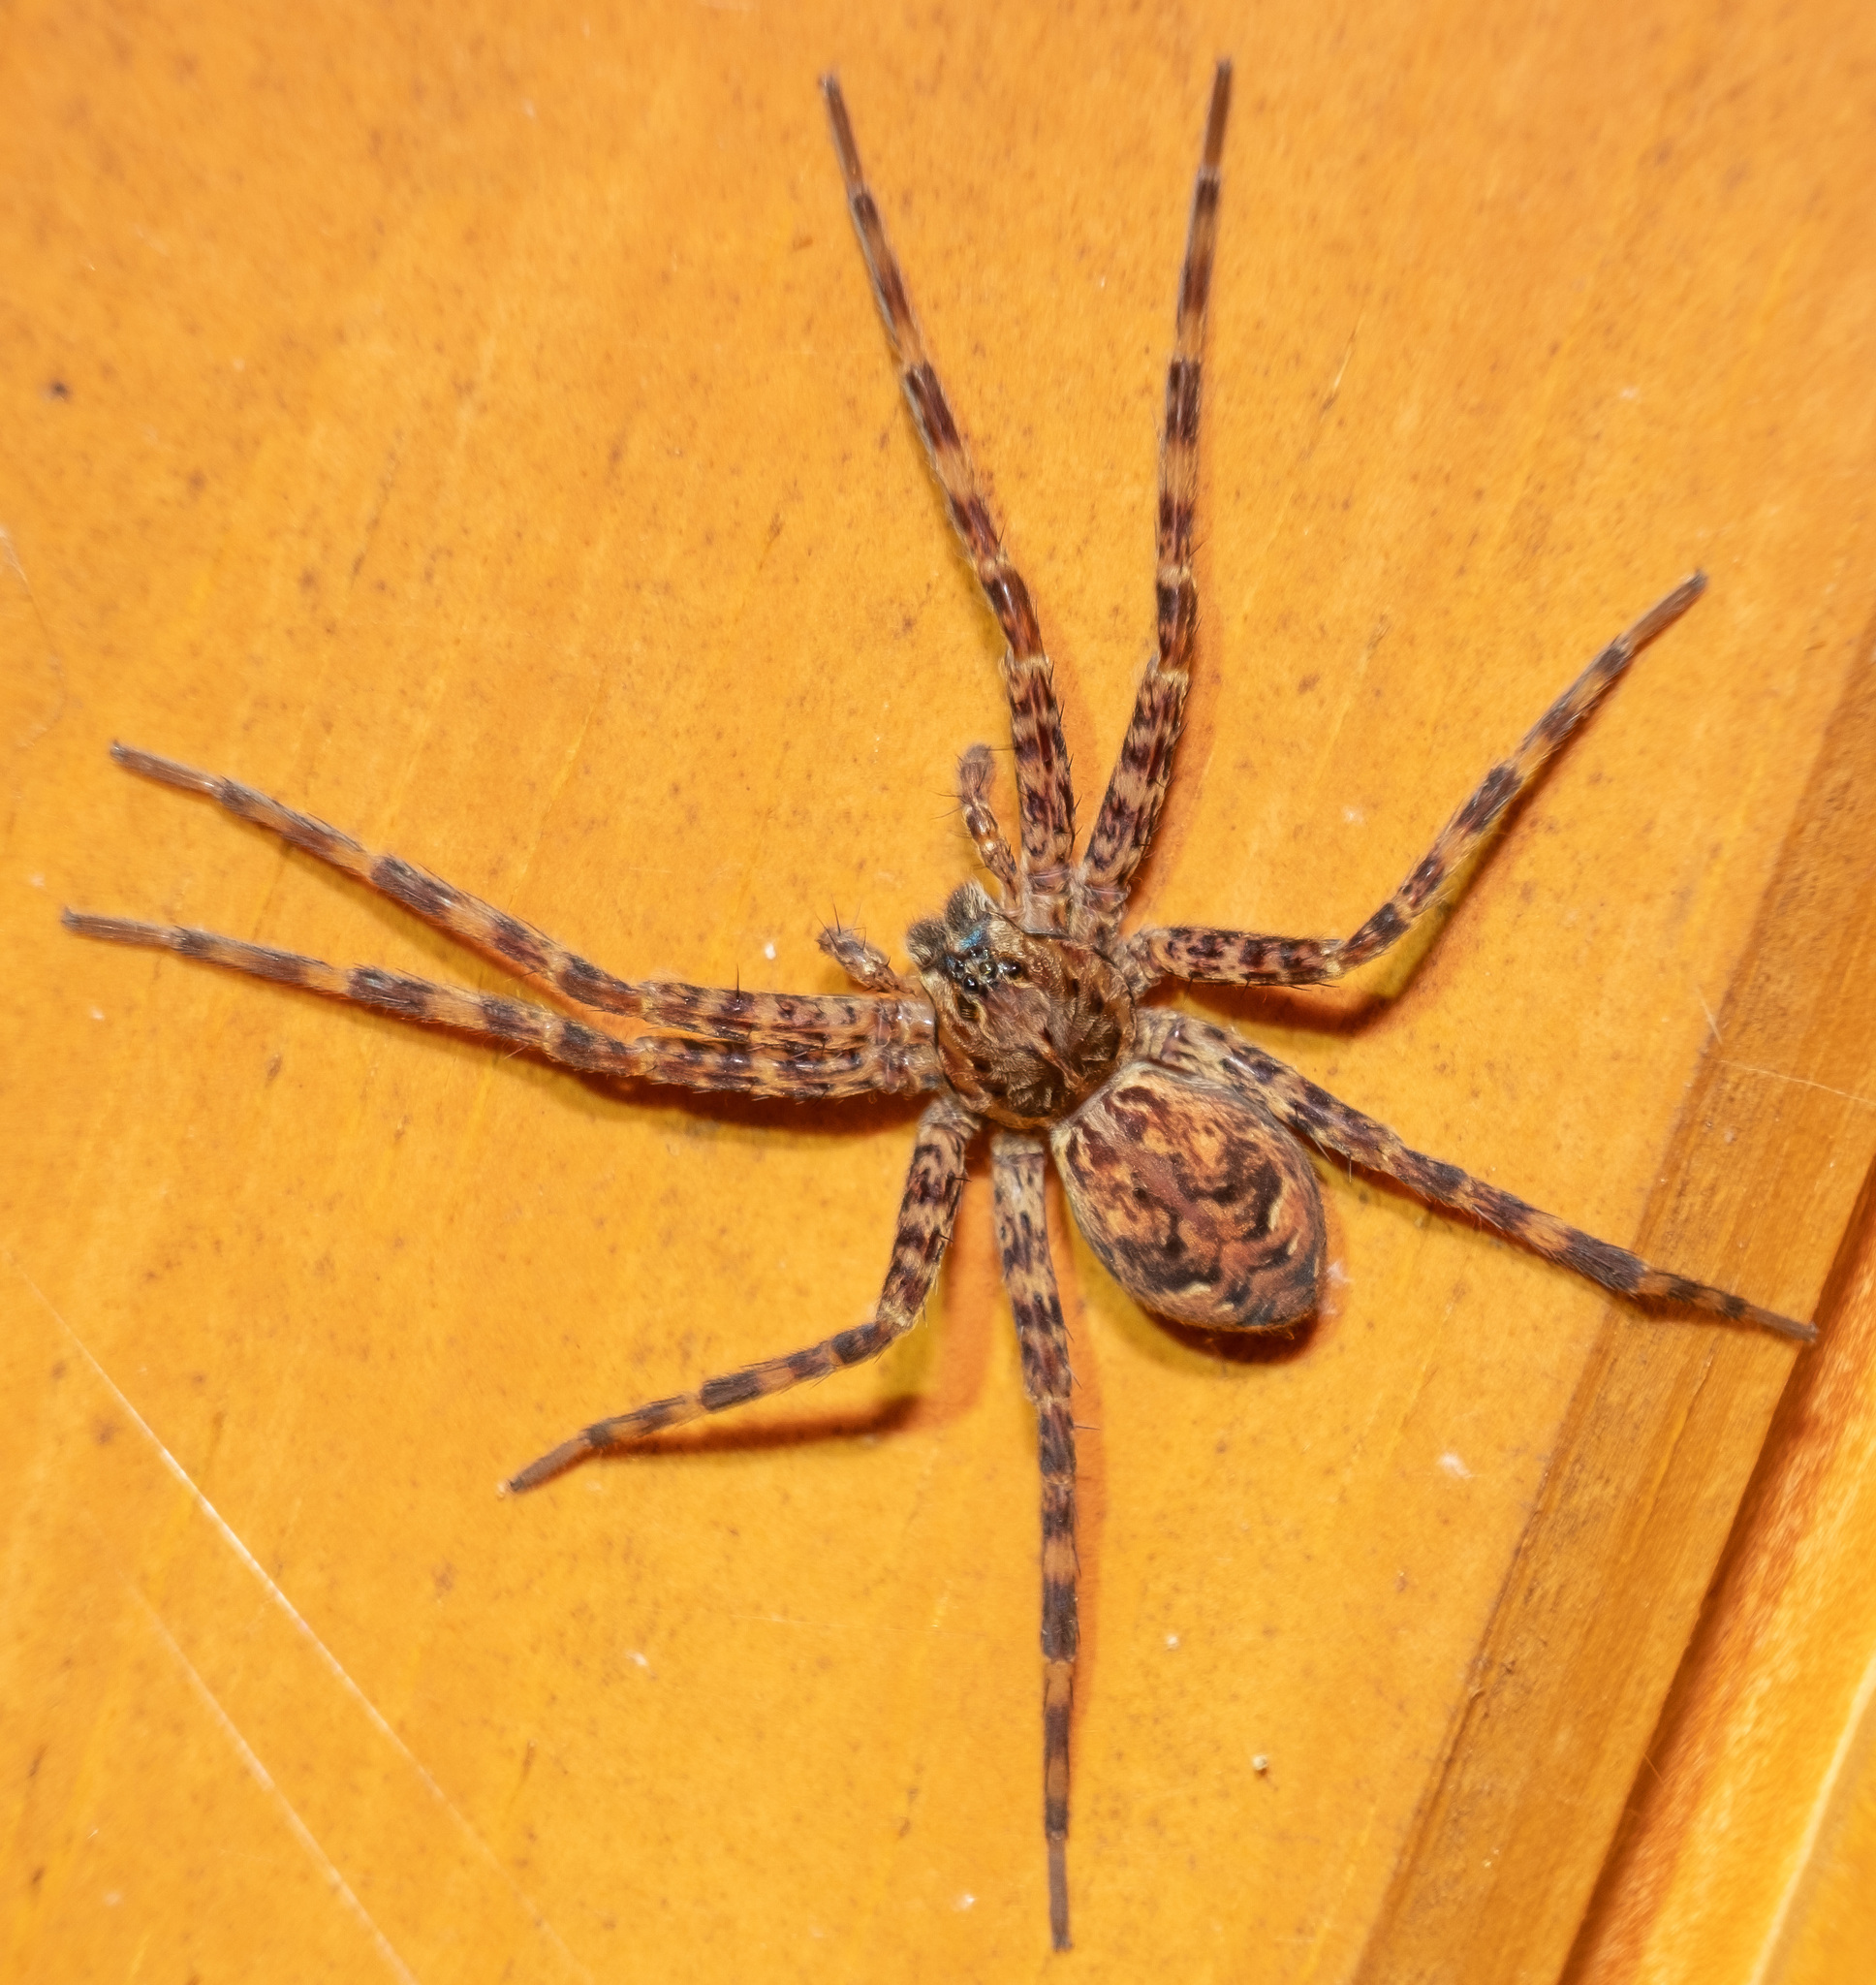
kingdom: Animalia
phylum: Arthropoda
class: Arachnida
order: Araneae
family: Pisauridae
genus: Dolomedes
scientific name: Dolomedes tenebrosus
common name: Dark fishing spider
